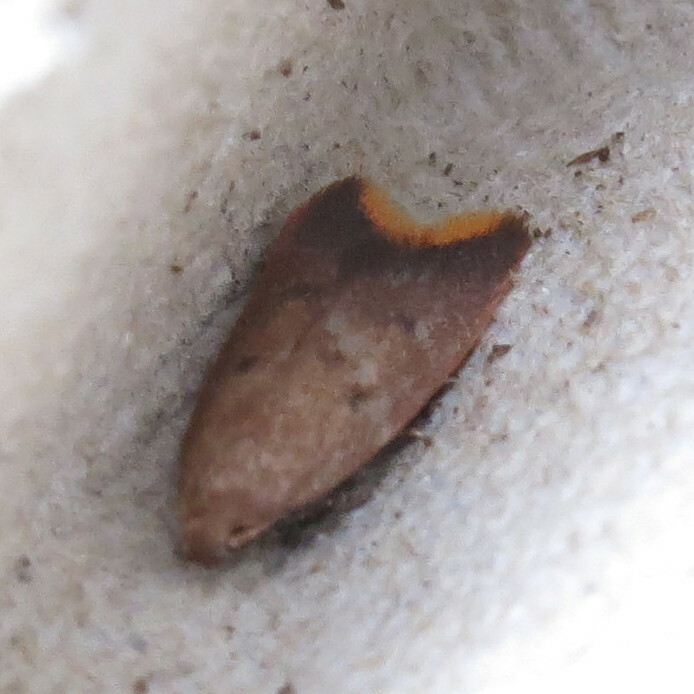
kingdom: Animalia
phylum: Arthropoda
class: Insecta
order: Lepidoptera
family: Oecophoridae
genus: Tachystola
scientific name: Tachystola acroxantha
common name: Ruddy streak
